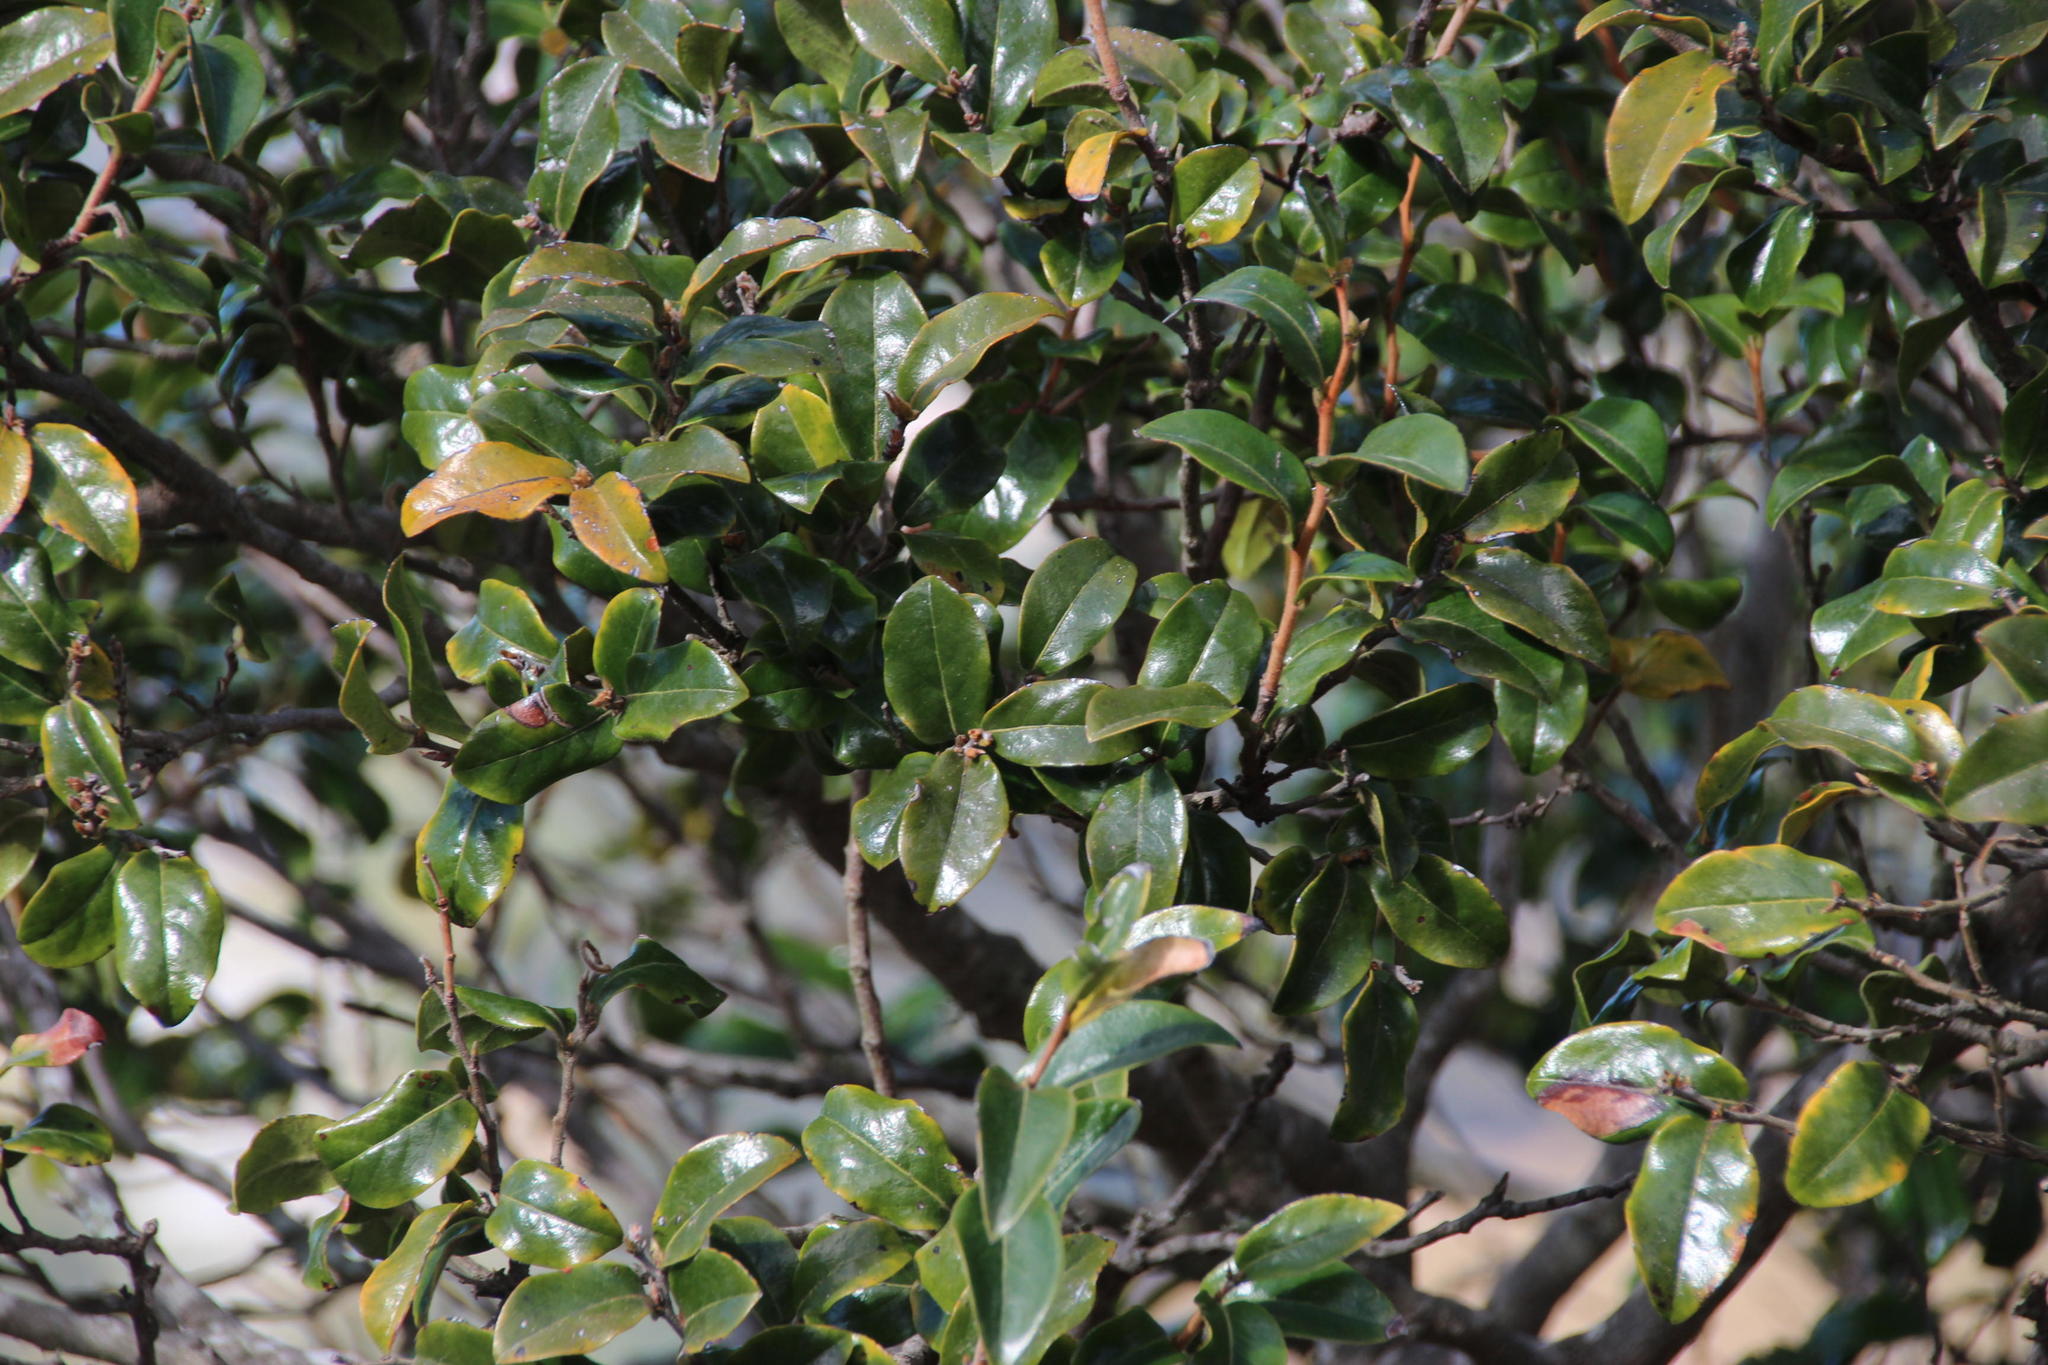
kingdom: Plantae
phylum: Tracheophyta
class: Magnoliopsida
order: Ericales
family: Ebenaceae
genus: Diospyros
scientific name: Diospyros whyteana
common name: Bladder-nut
